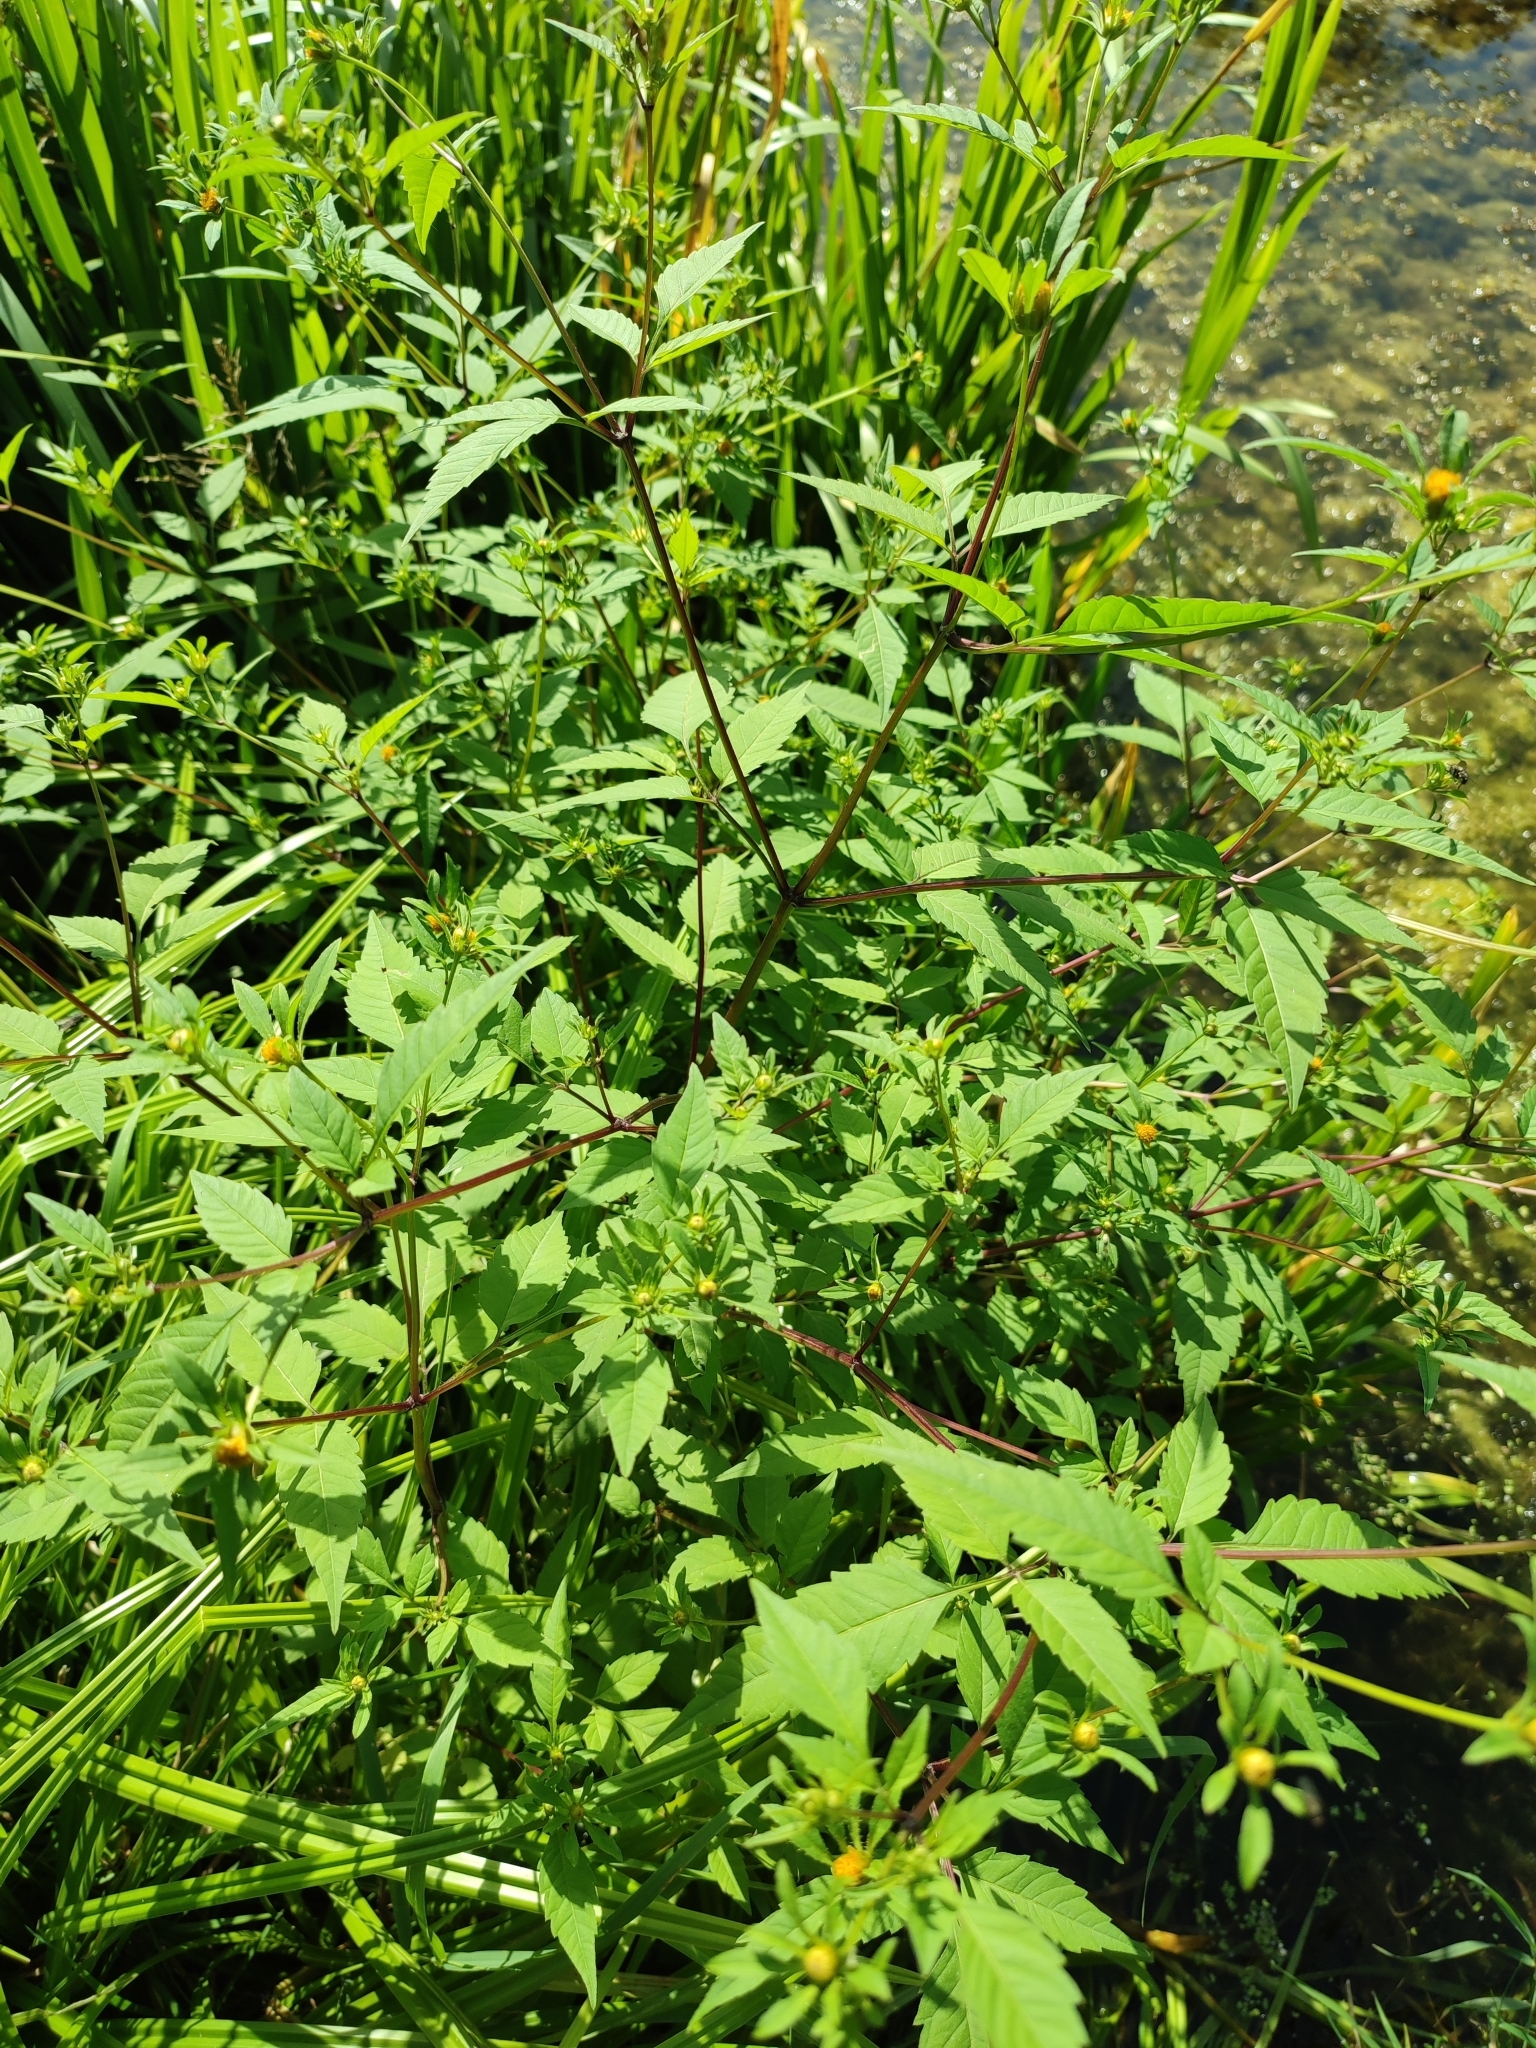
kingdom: Plantae
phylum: Tracheophyta
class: Magnoliopsida
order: Asterales
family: Asteraceae
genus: Bidens
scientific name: Bidens frondosa
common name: Beggarticks
